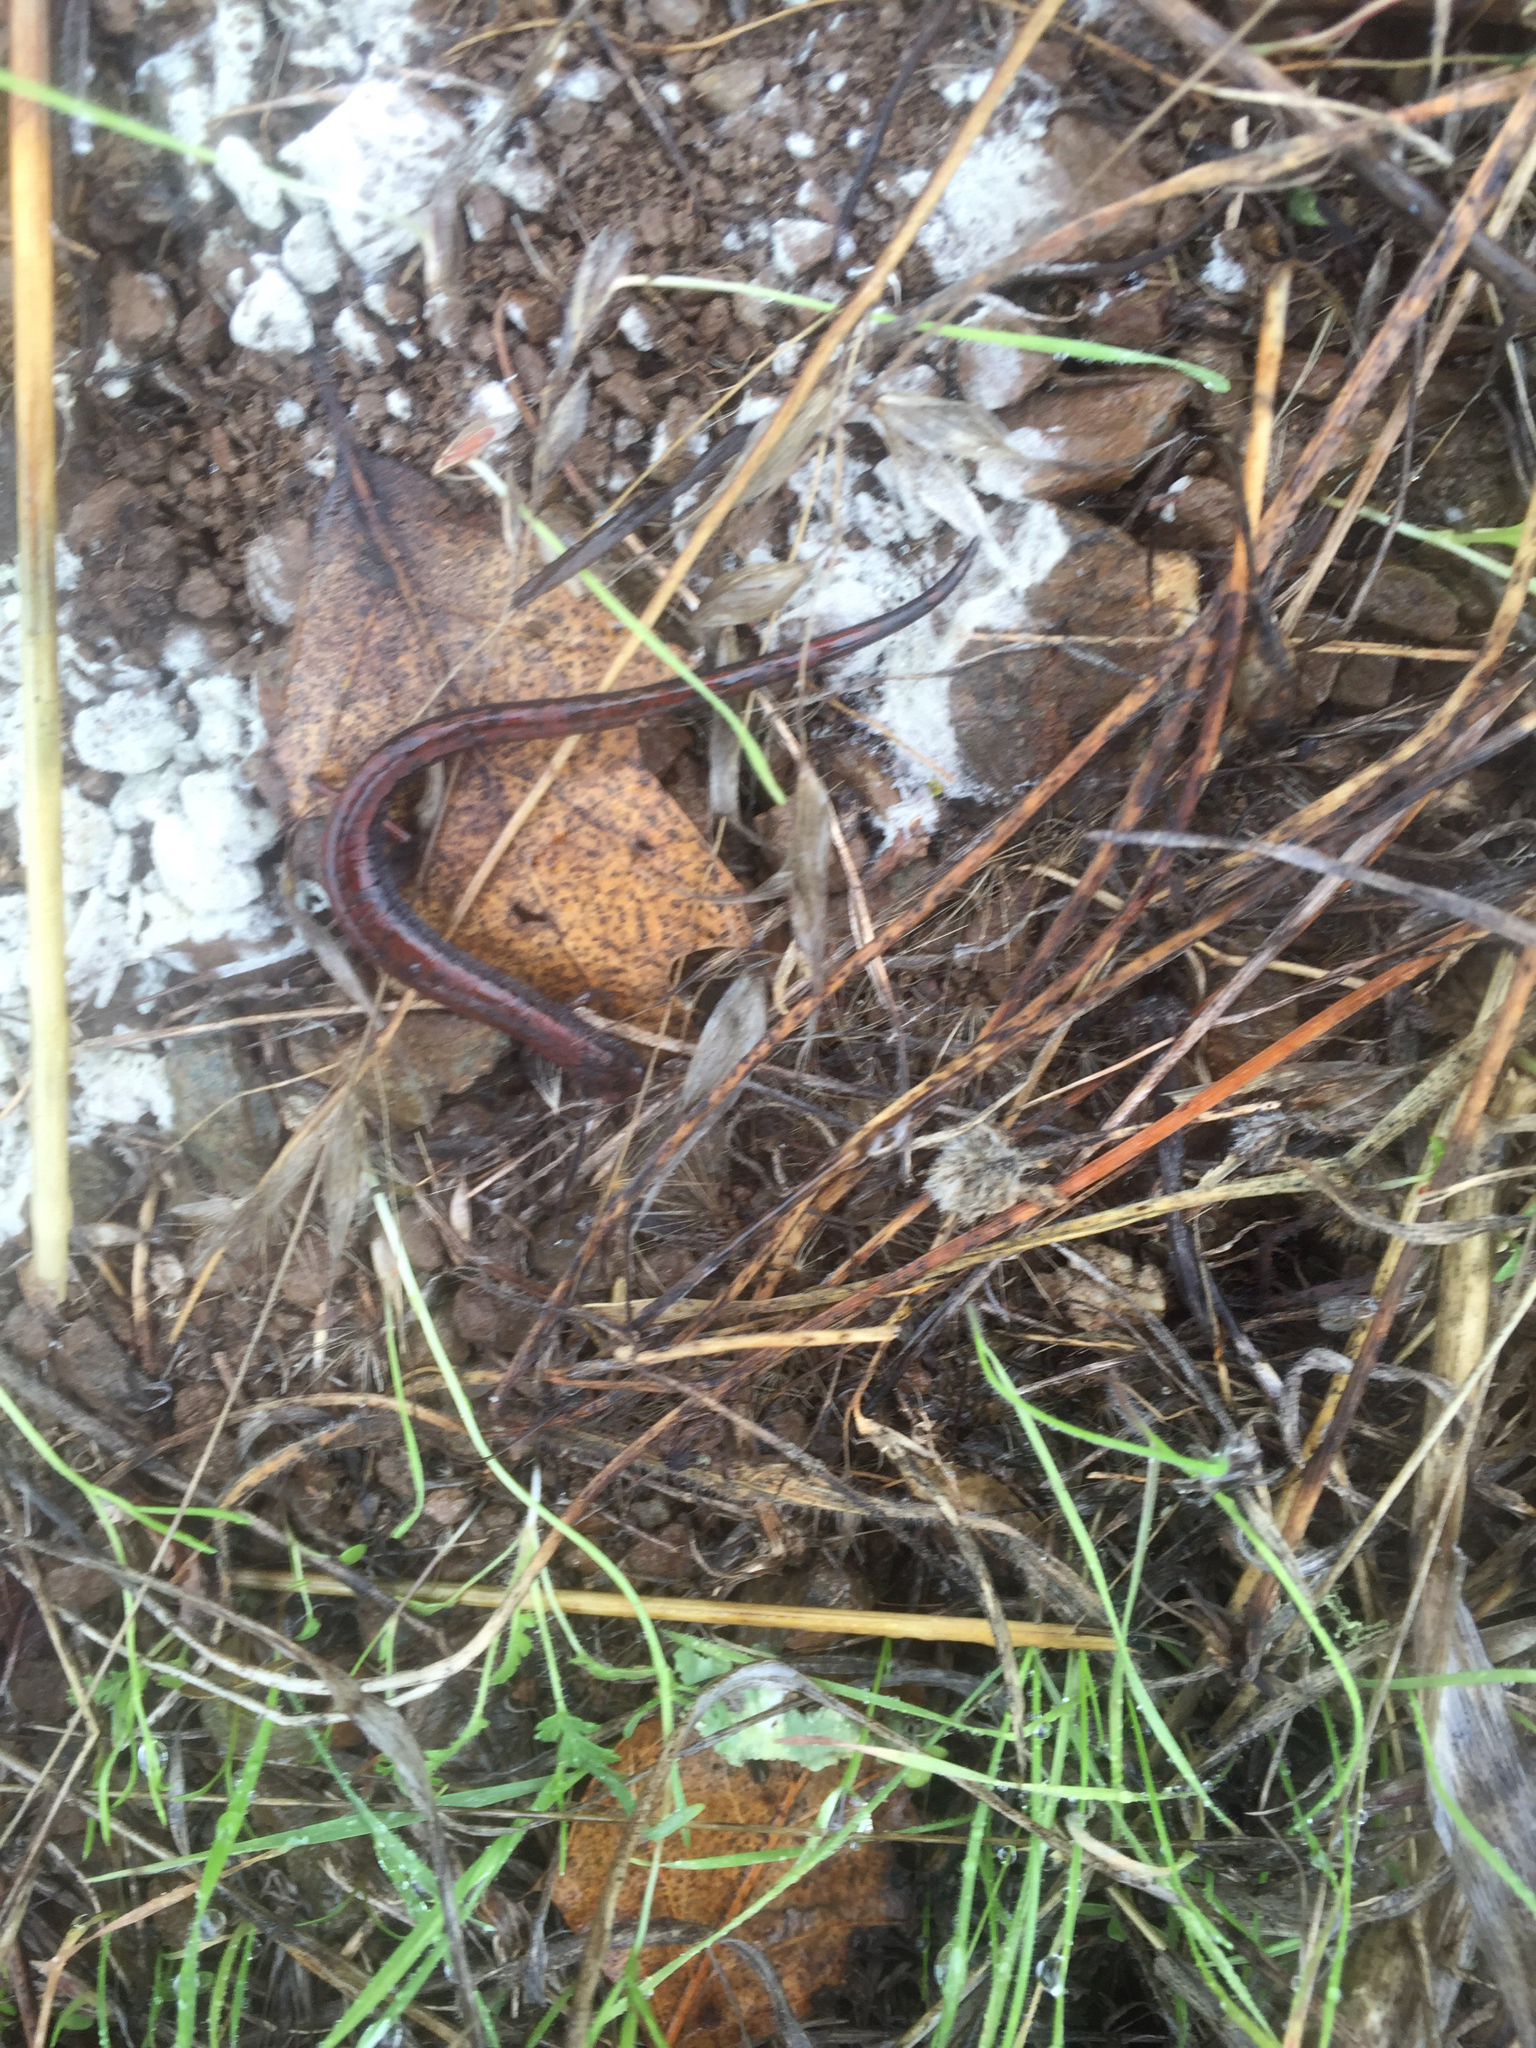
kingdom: Animalia
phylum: Chordata
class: Amphibia
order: Caudata
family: Plethodontidae
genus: Batrachoseps
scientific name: Batrachoseps attenuatus
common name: California slender salamander
